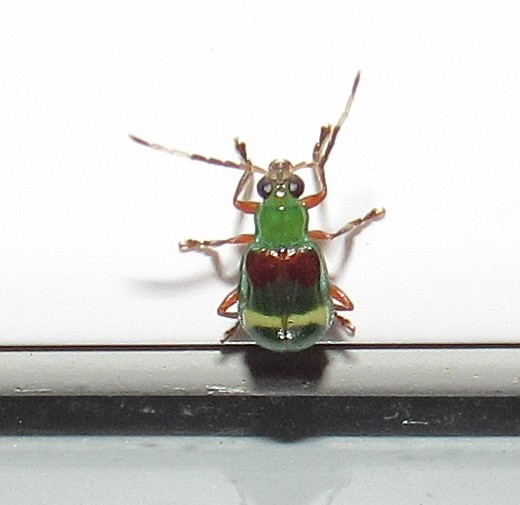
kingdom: Animalia
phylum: Arthropoda
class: Insecta
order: Coleoptera
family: Chrysomelidae
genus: Charidotella
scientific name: Charidotella amoenula
